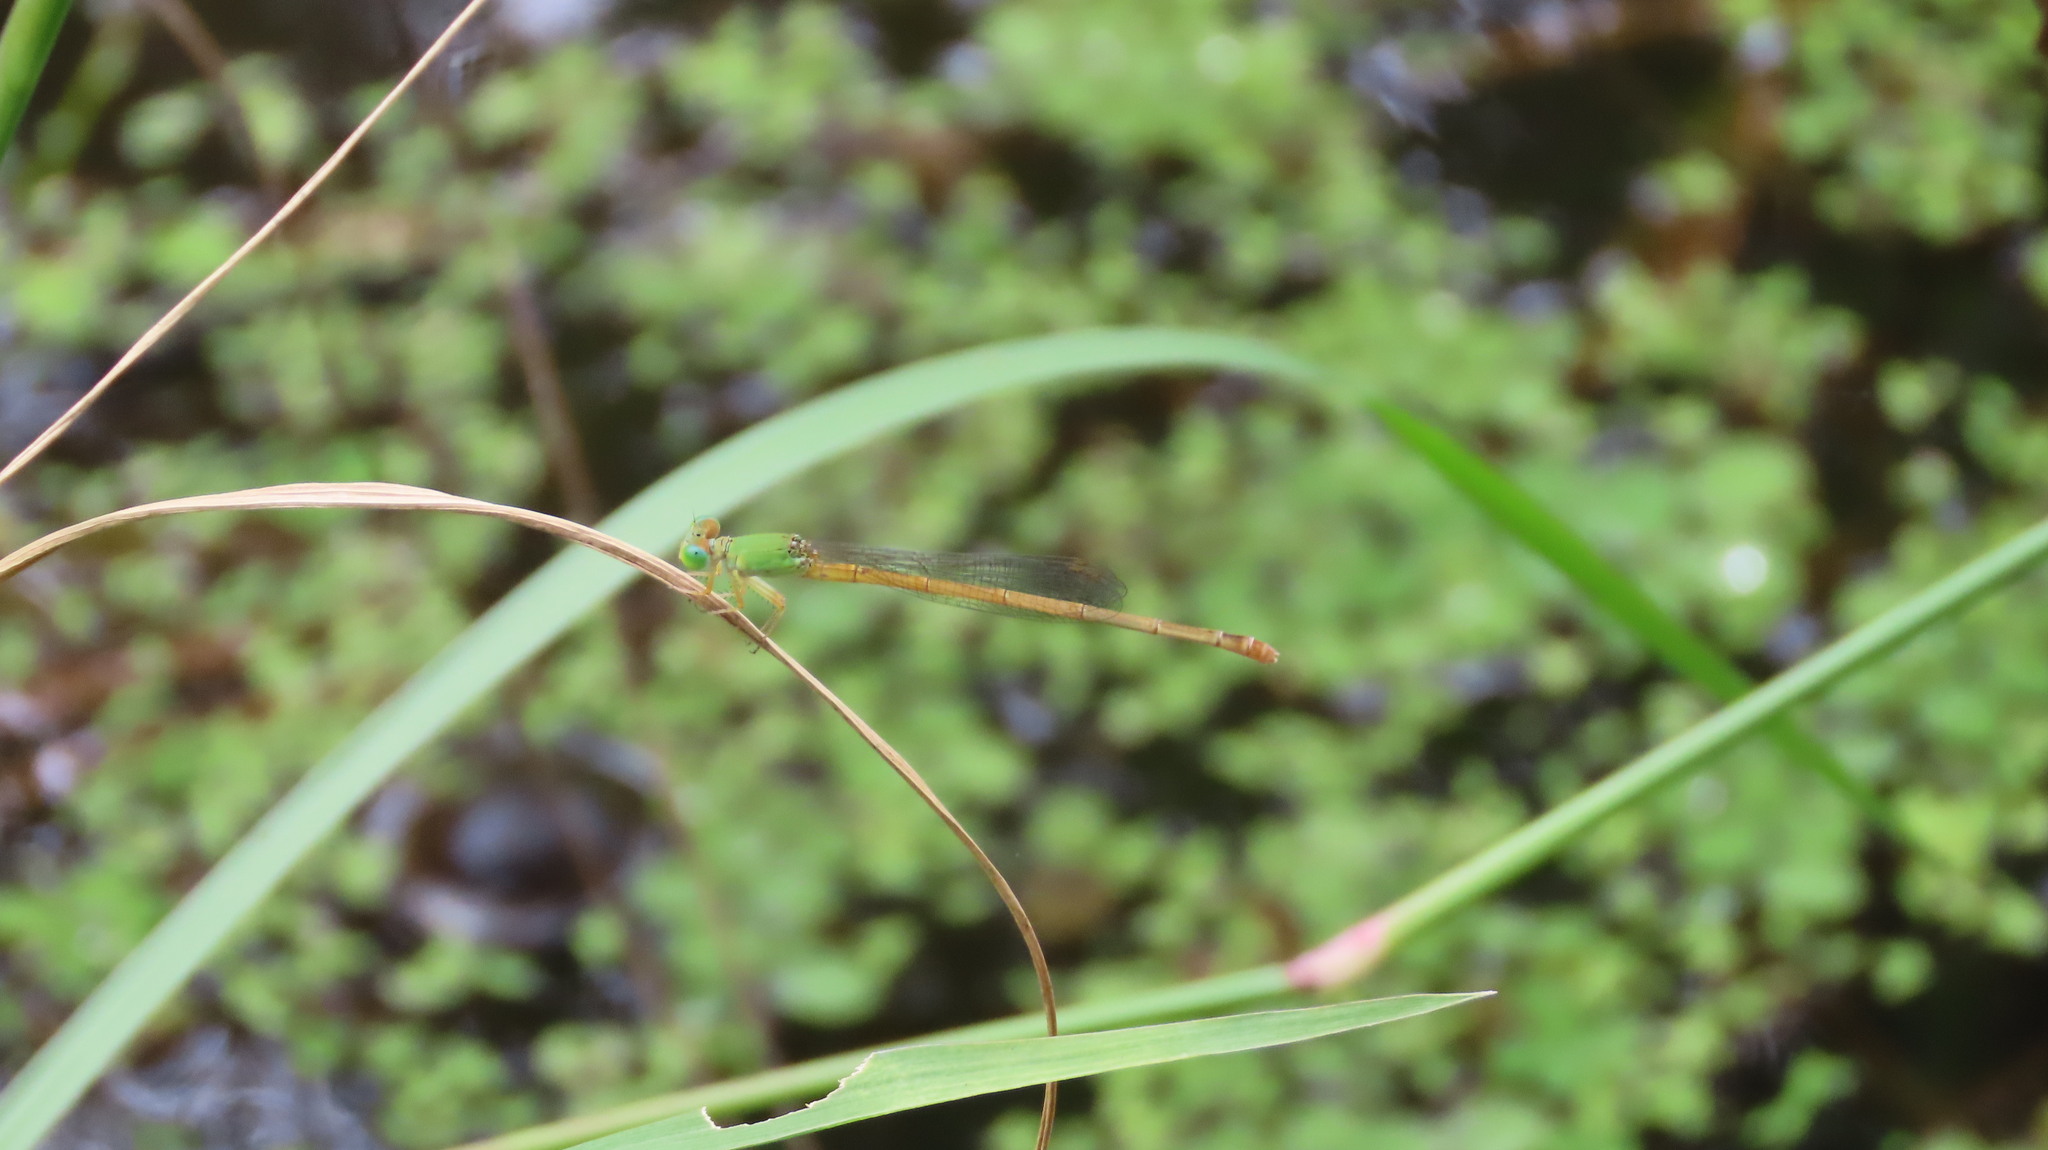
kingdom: Animalia
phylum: Arthropoda
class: Insecta
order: Odonata
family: Coenagrionidae
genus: Ceriagrion
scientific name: Ceriagrion coromandelianum
